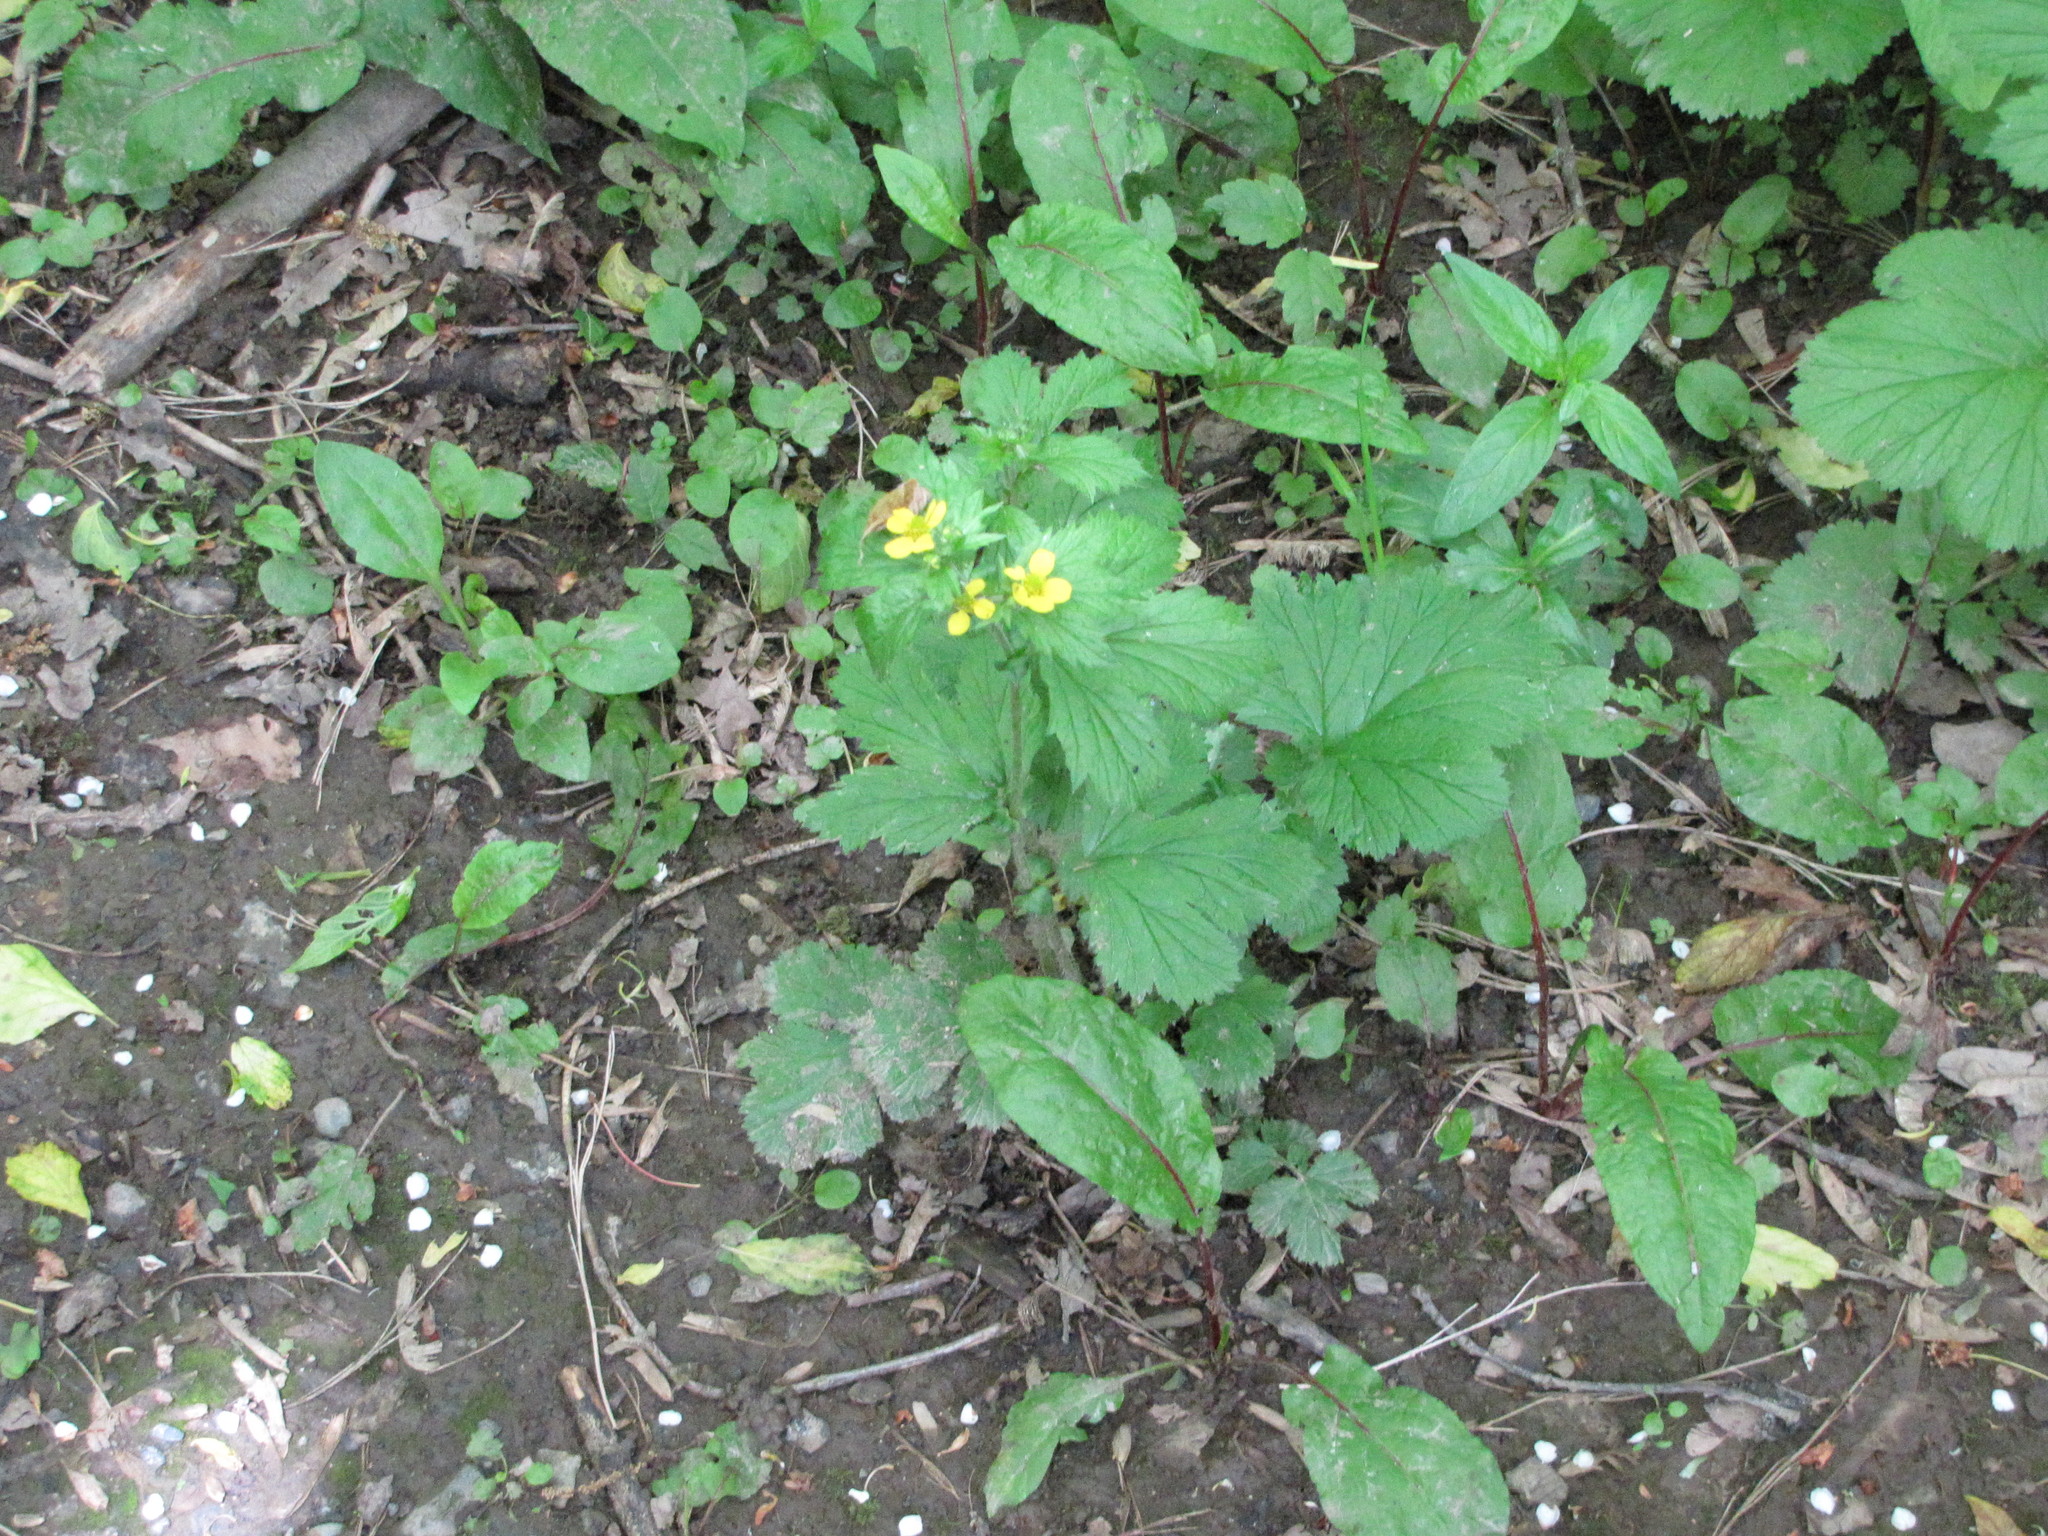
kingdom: Plantae
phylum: Tracheophyta
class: Magnoliopsida
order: Rosales
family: Rosaceae
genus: Geum
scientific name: Geum macrophyllum
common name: Large-leaved avens
